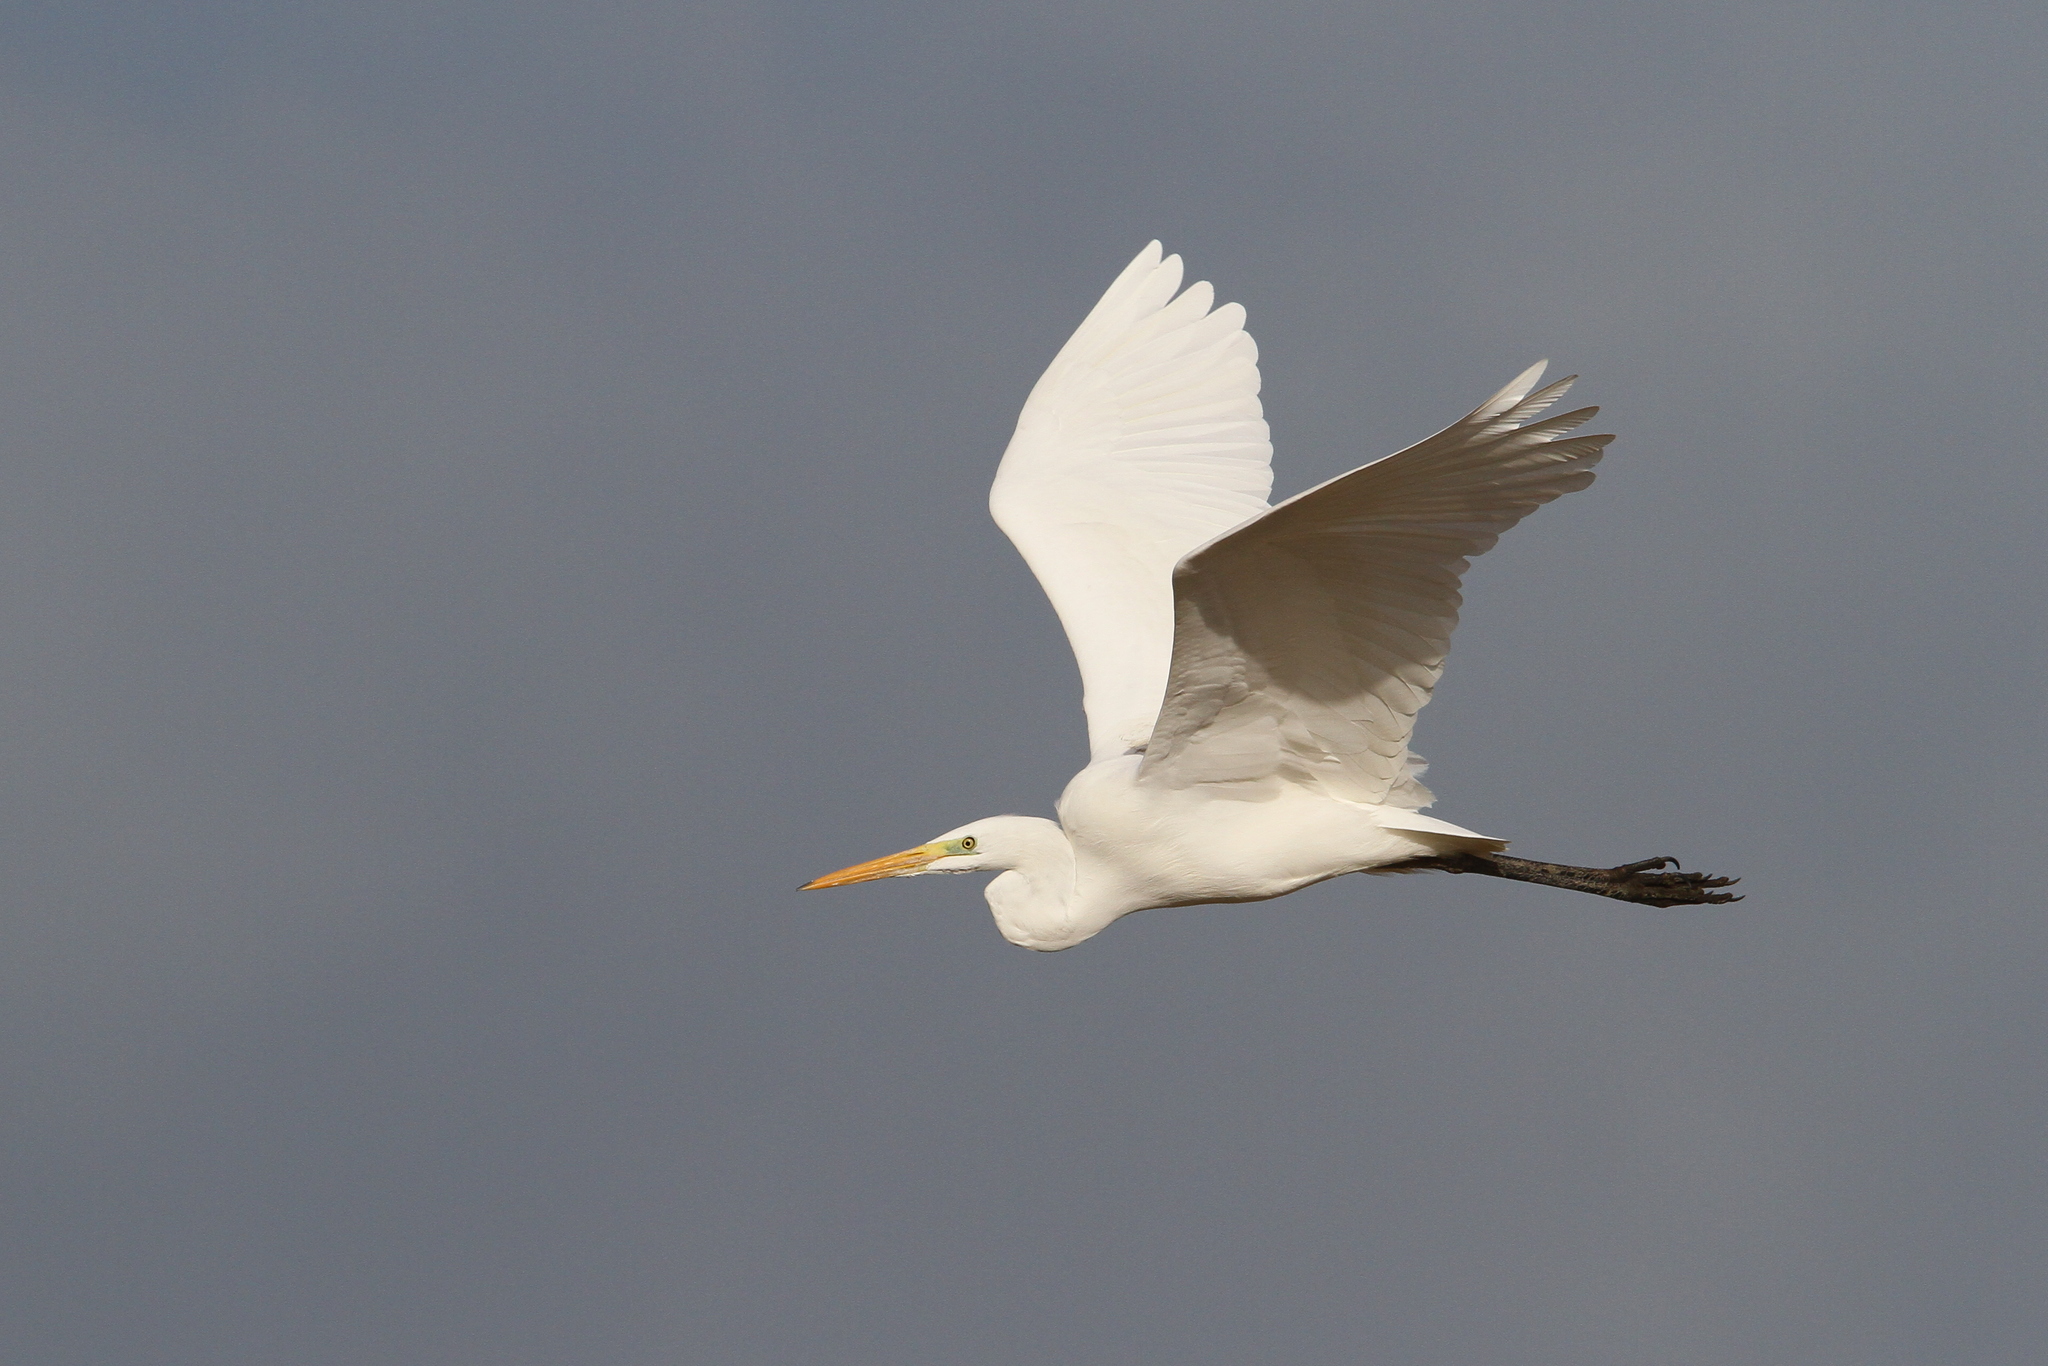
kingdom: Animalia
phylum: Chordata
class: Aves
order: Pelecaniformes
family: Ardeidae
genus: Ardea
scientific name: Ardea alba
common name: Great egret
